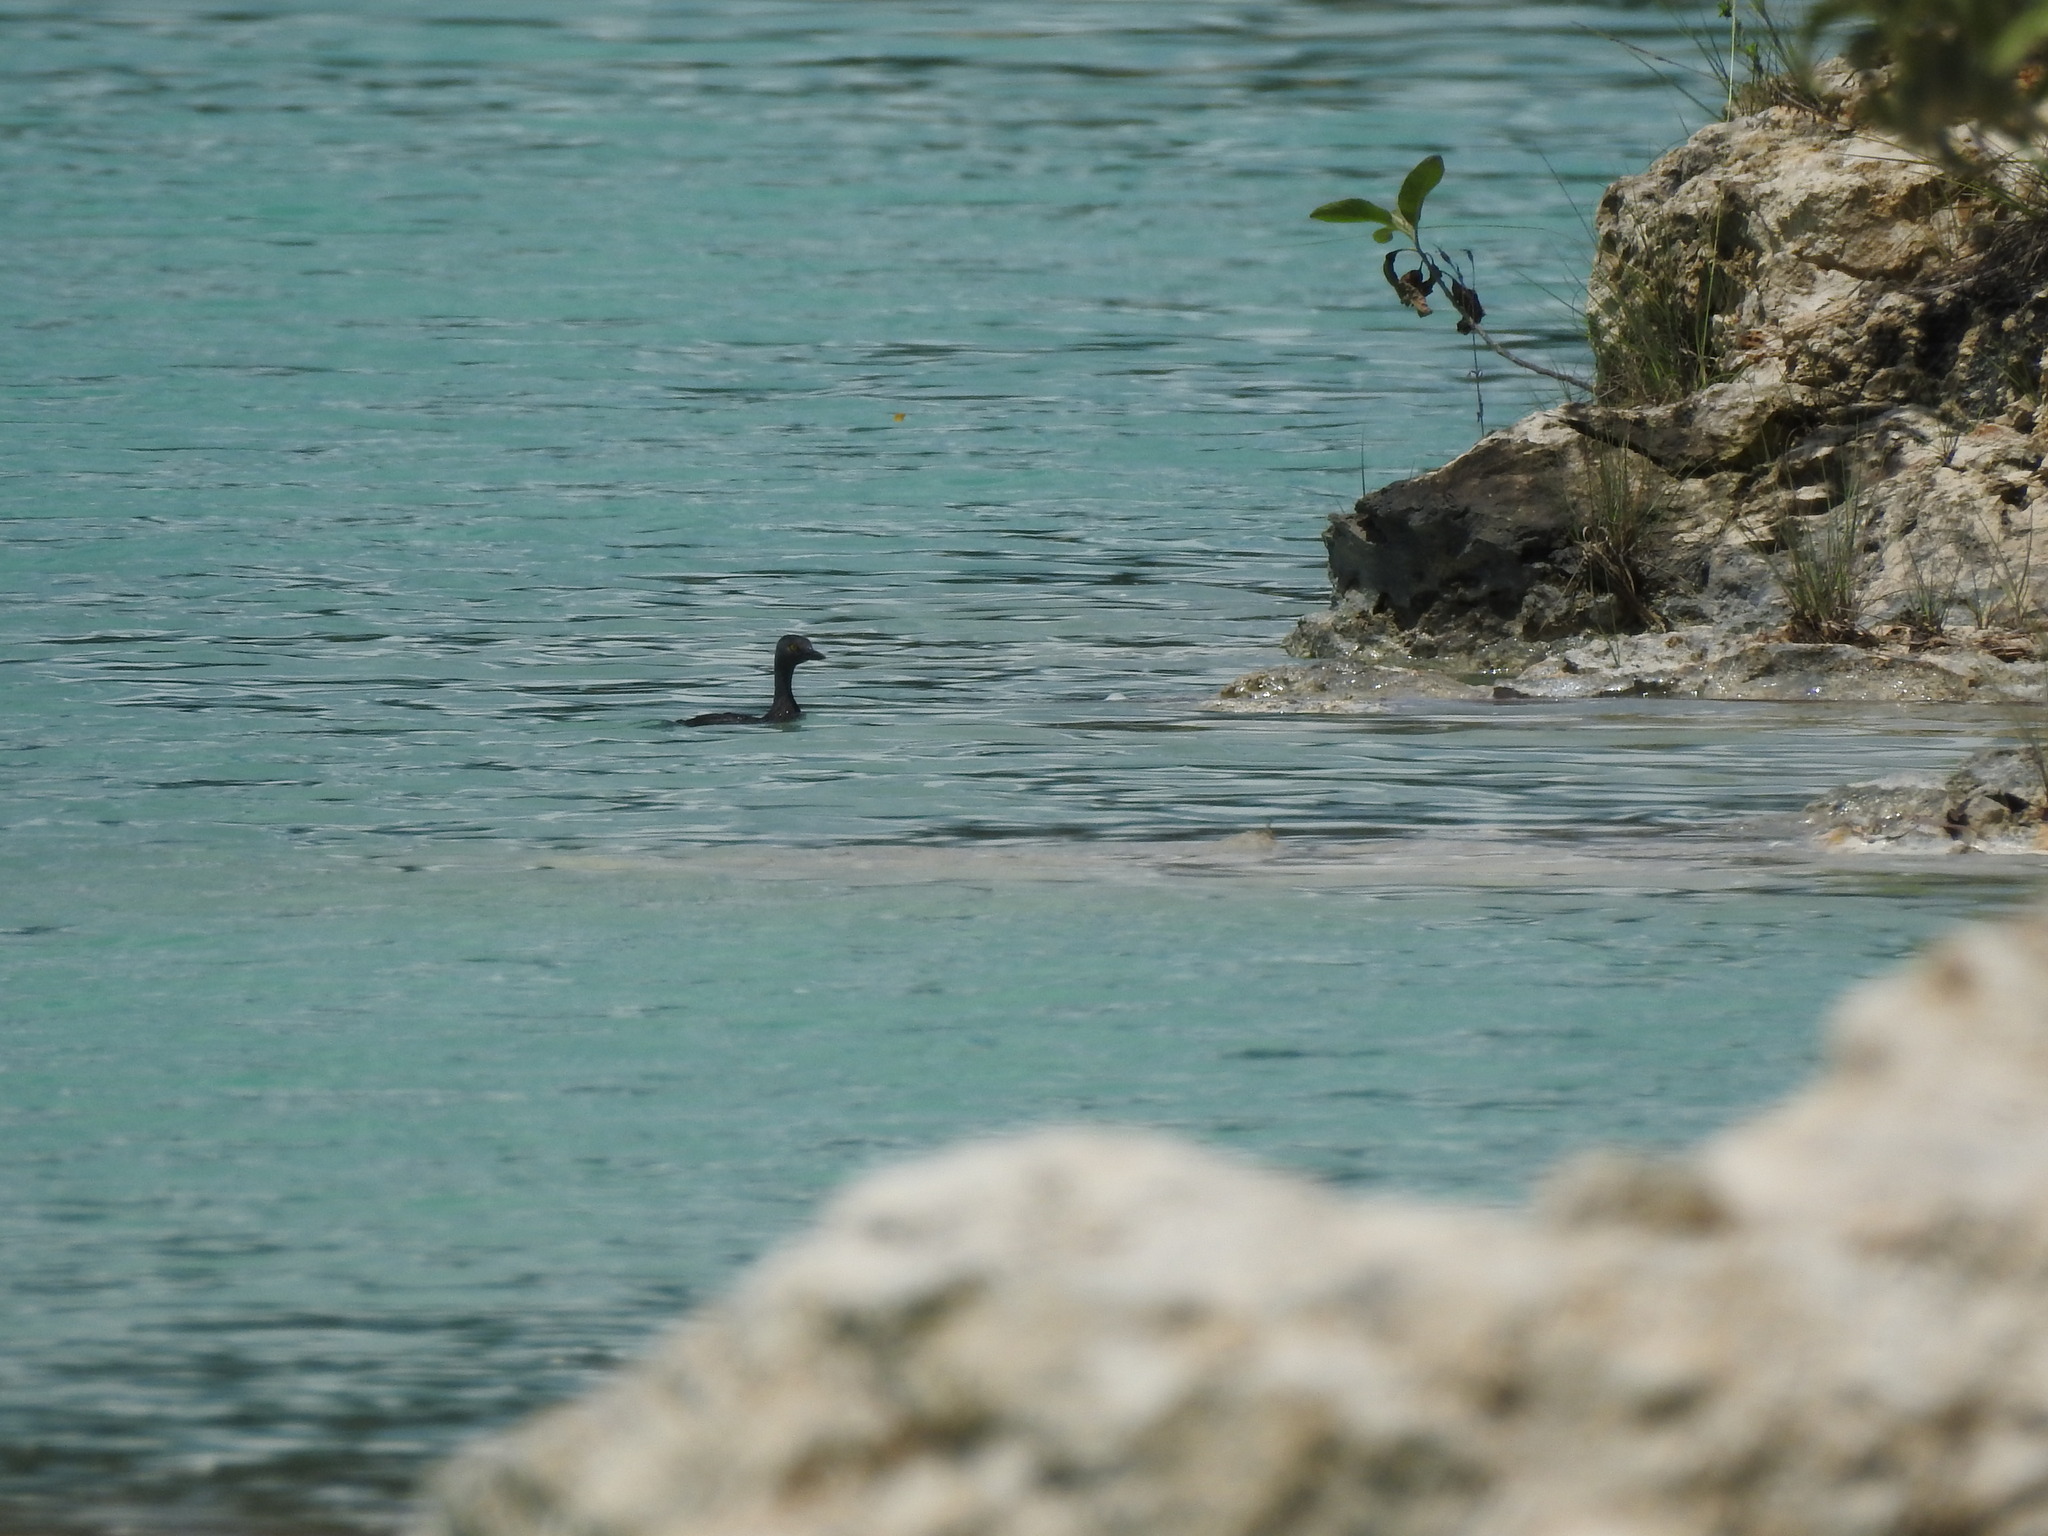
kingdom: Animalia
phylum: Chordata
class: Aves
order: Podicipediformes
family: Podicipedidae
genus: Tachybaptus
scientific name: Tachybaptus dominicus
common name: Least grebe
